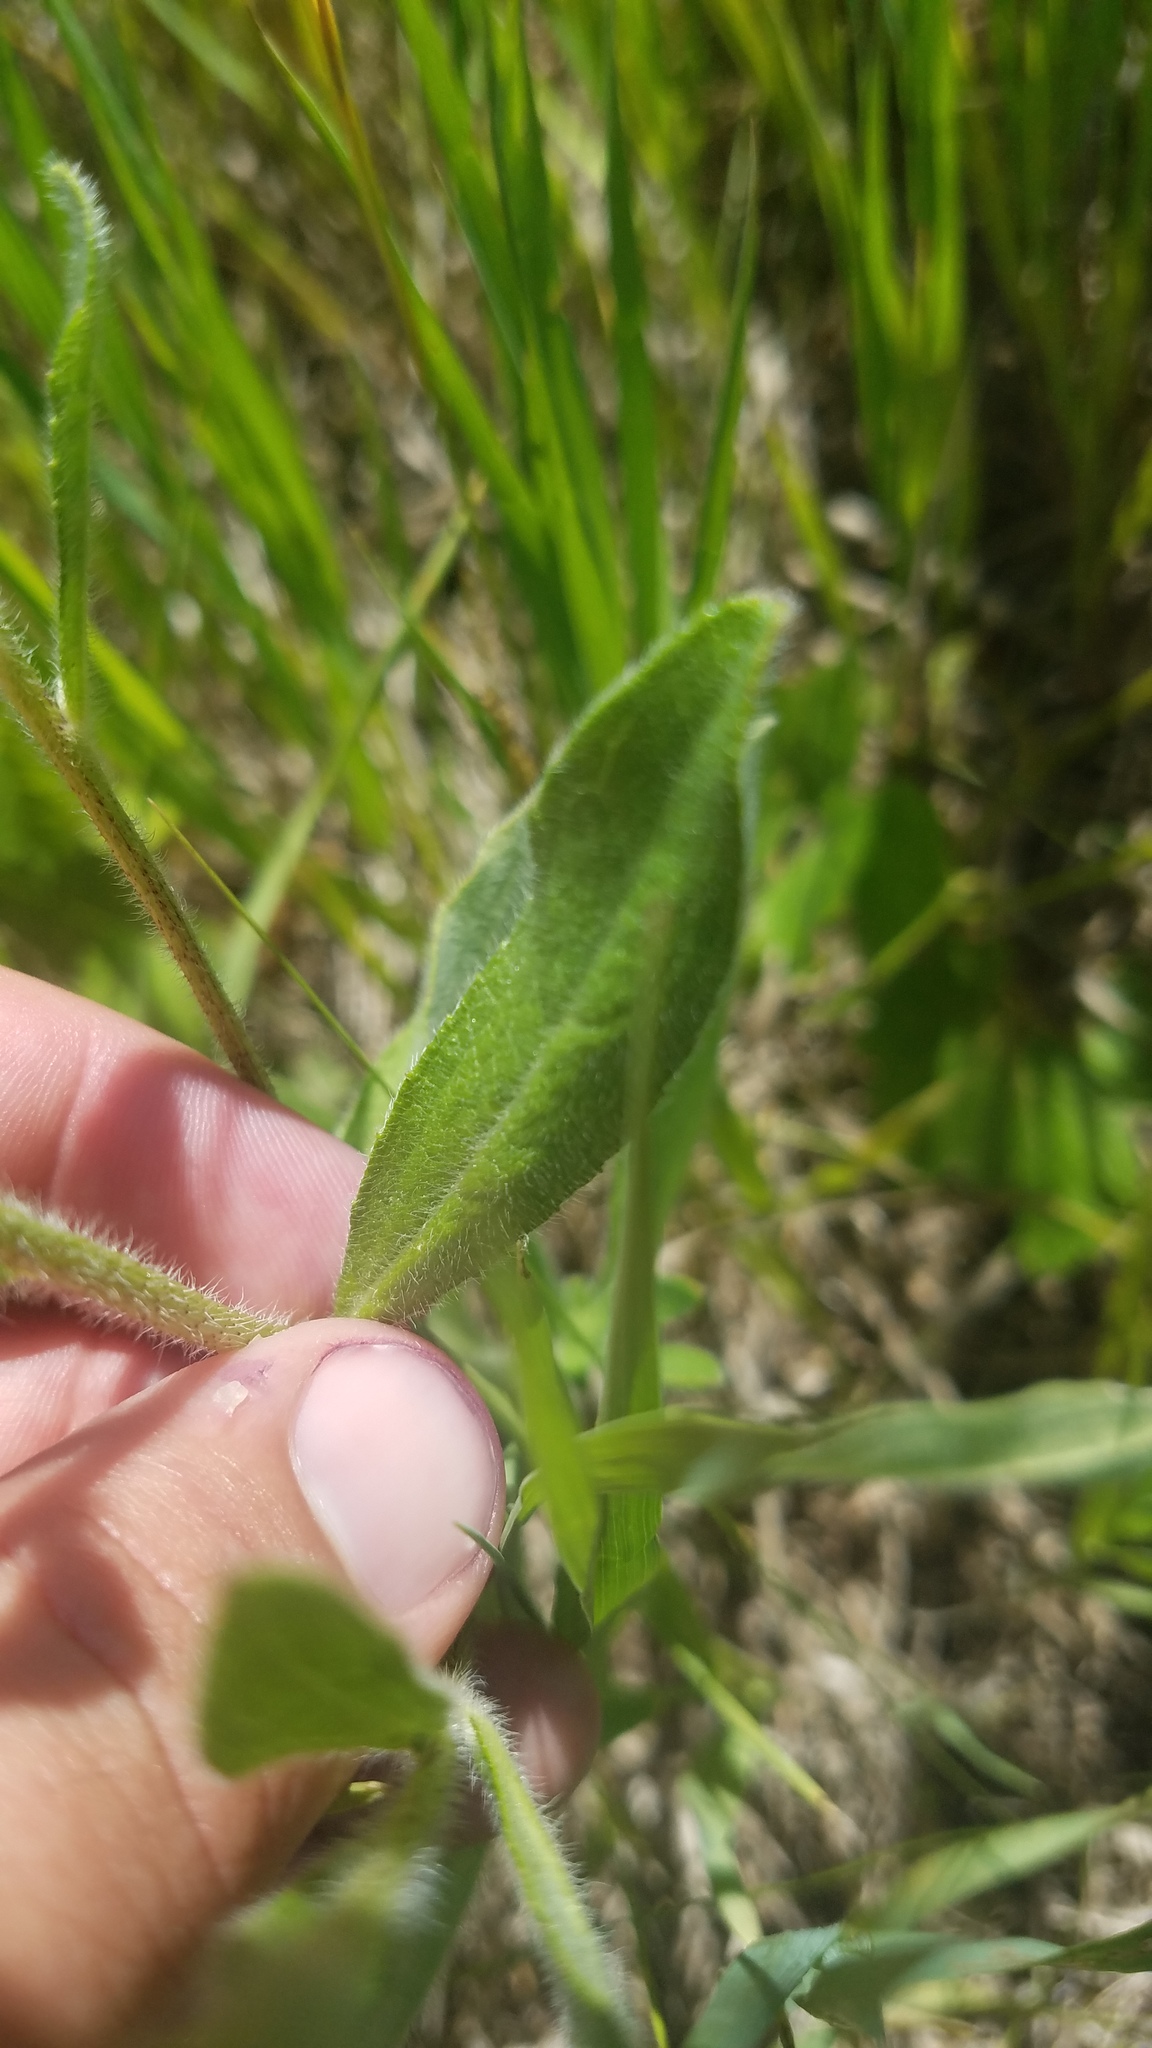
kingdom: Plantae
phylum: Tracheophyta
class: Magnoliopsida
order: Asterales
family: Asteraceae
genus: Rudbeckia
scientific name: Rudbeckia hirta
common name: Black-eyed-susan
